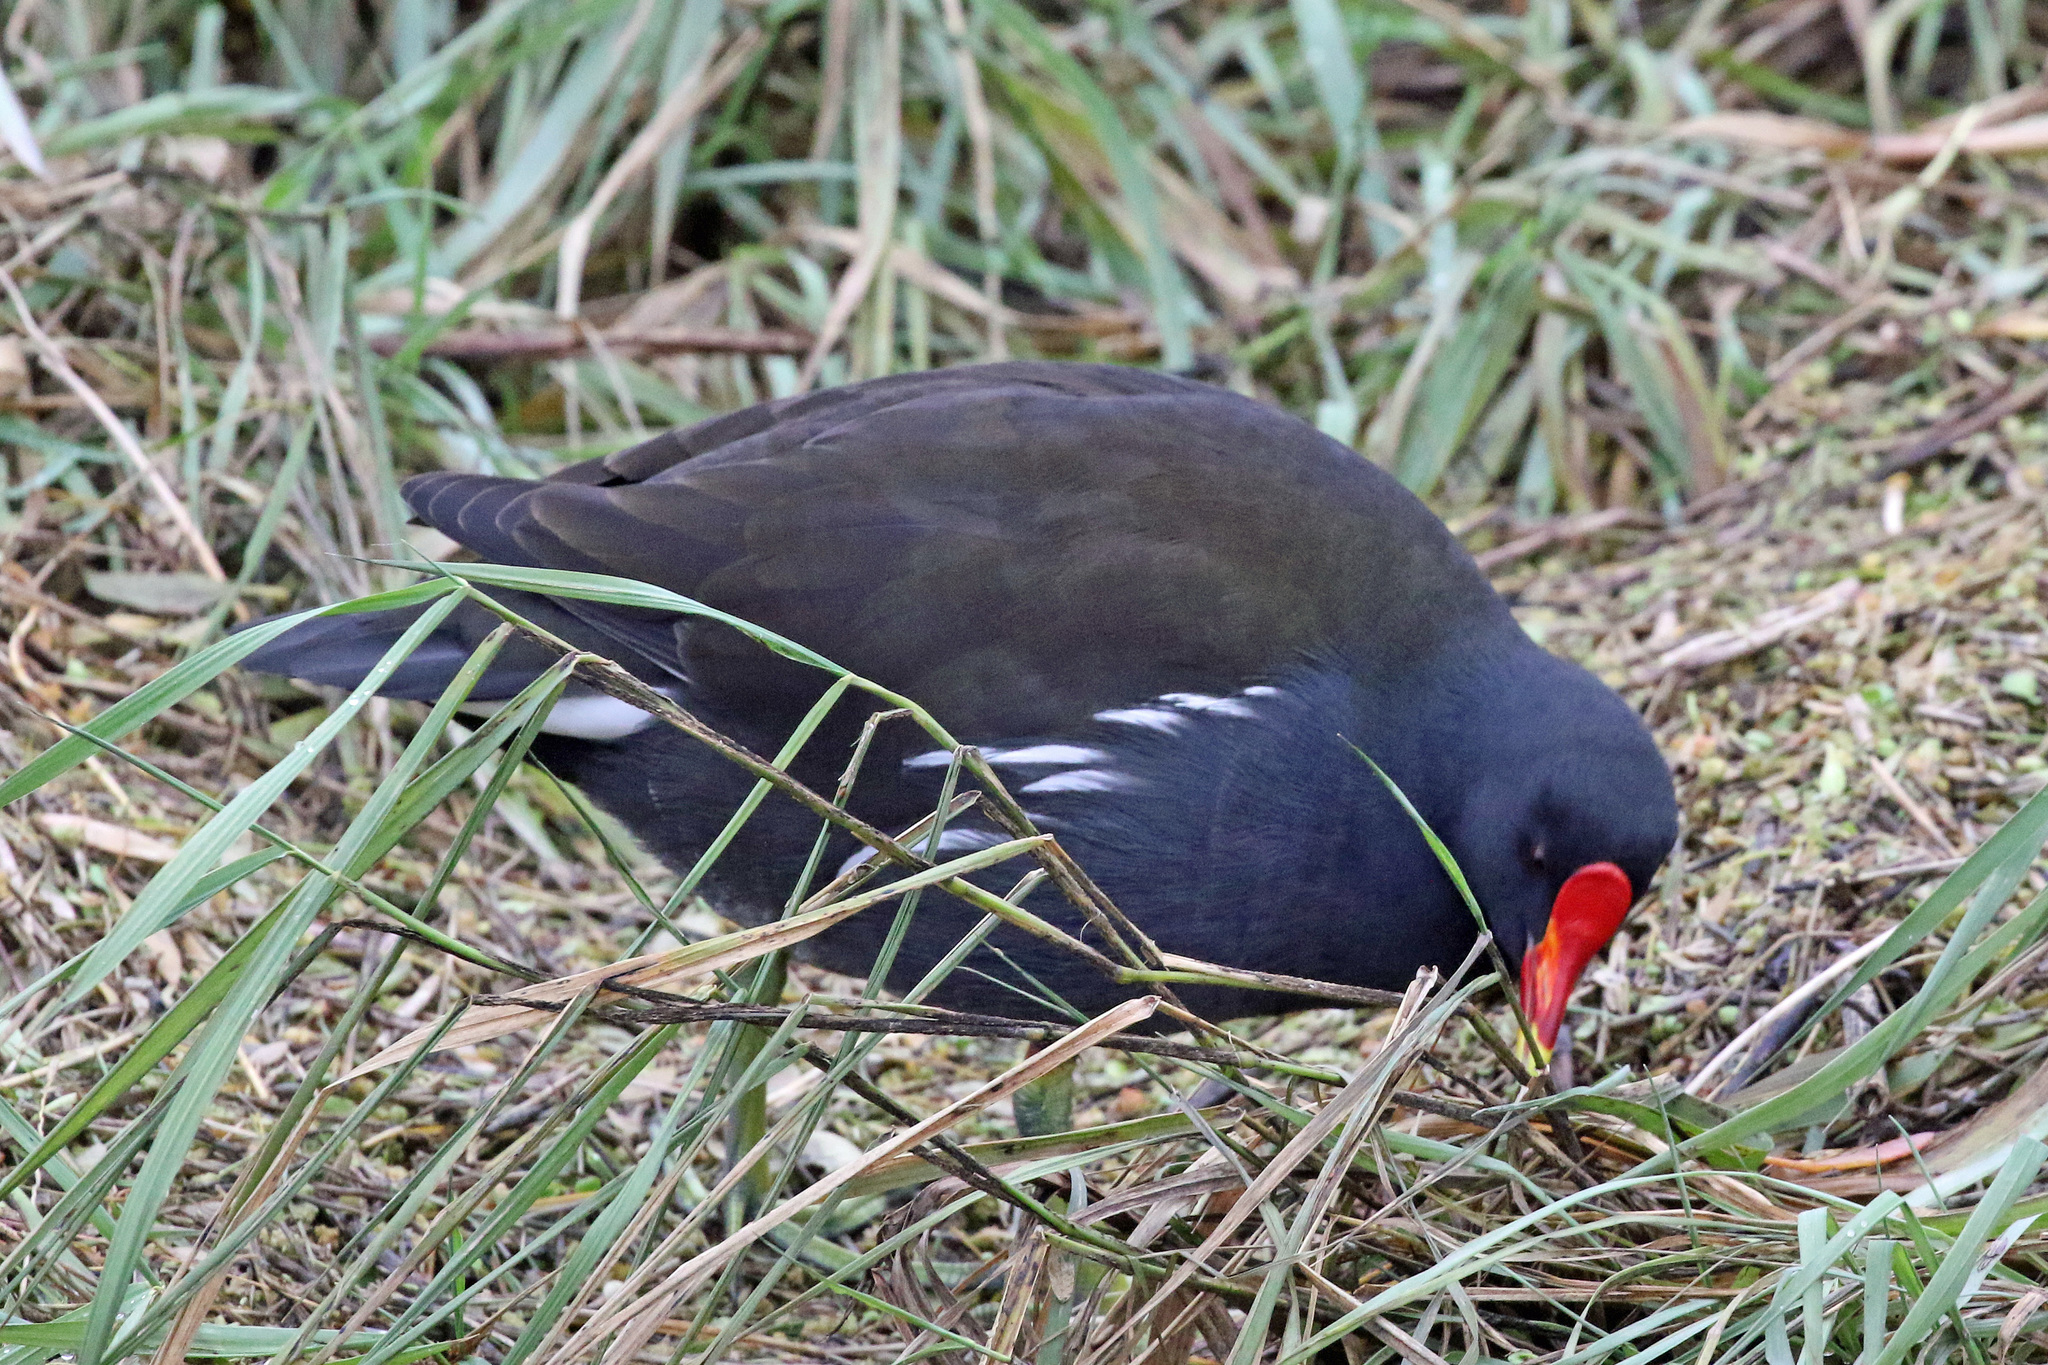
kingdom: Animalia
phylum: Chordata
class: Aves
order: Gruiformes
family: Rallidae
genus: Gallinula
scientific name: Gallinula chloropus
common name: Common moorhen
